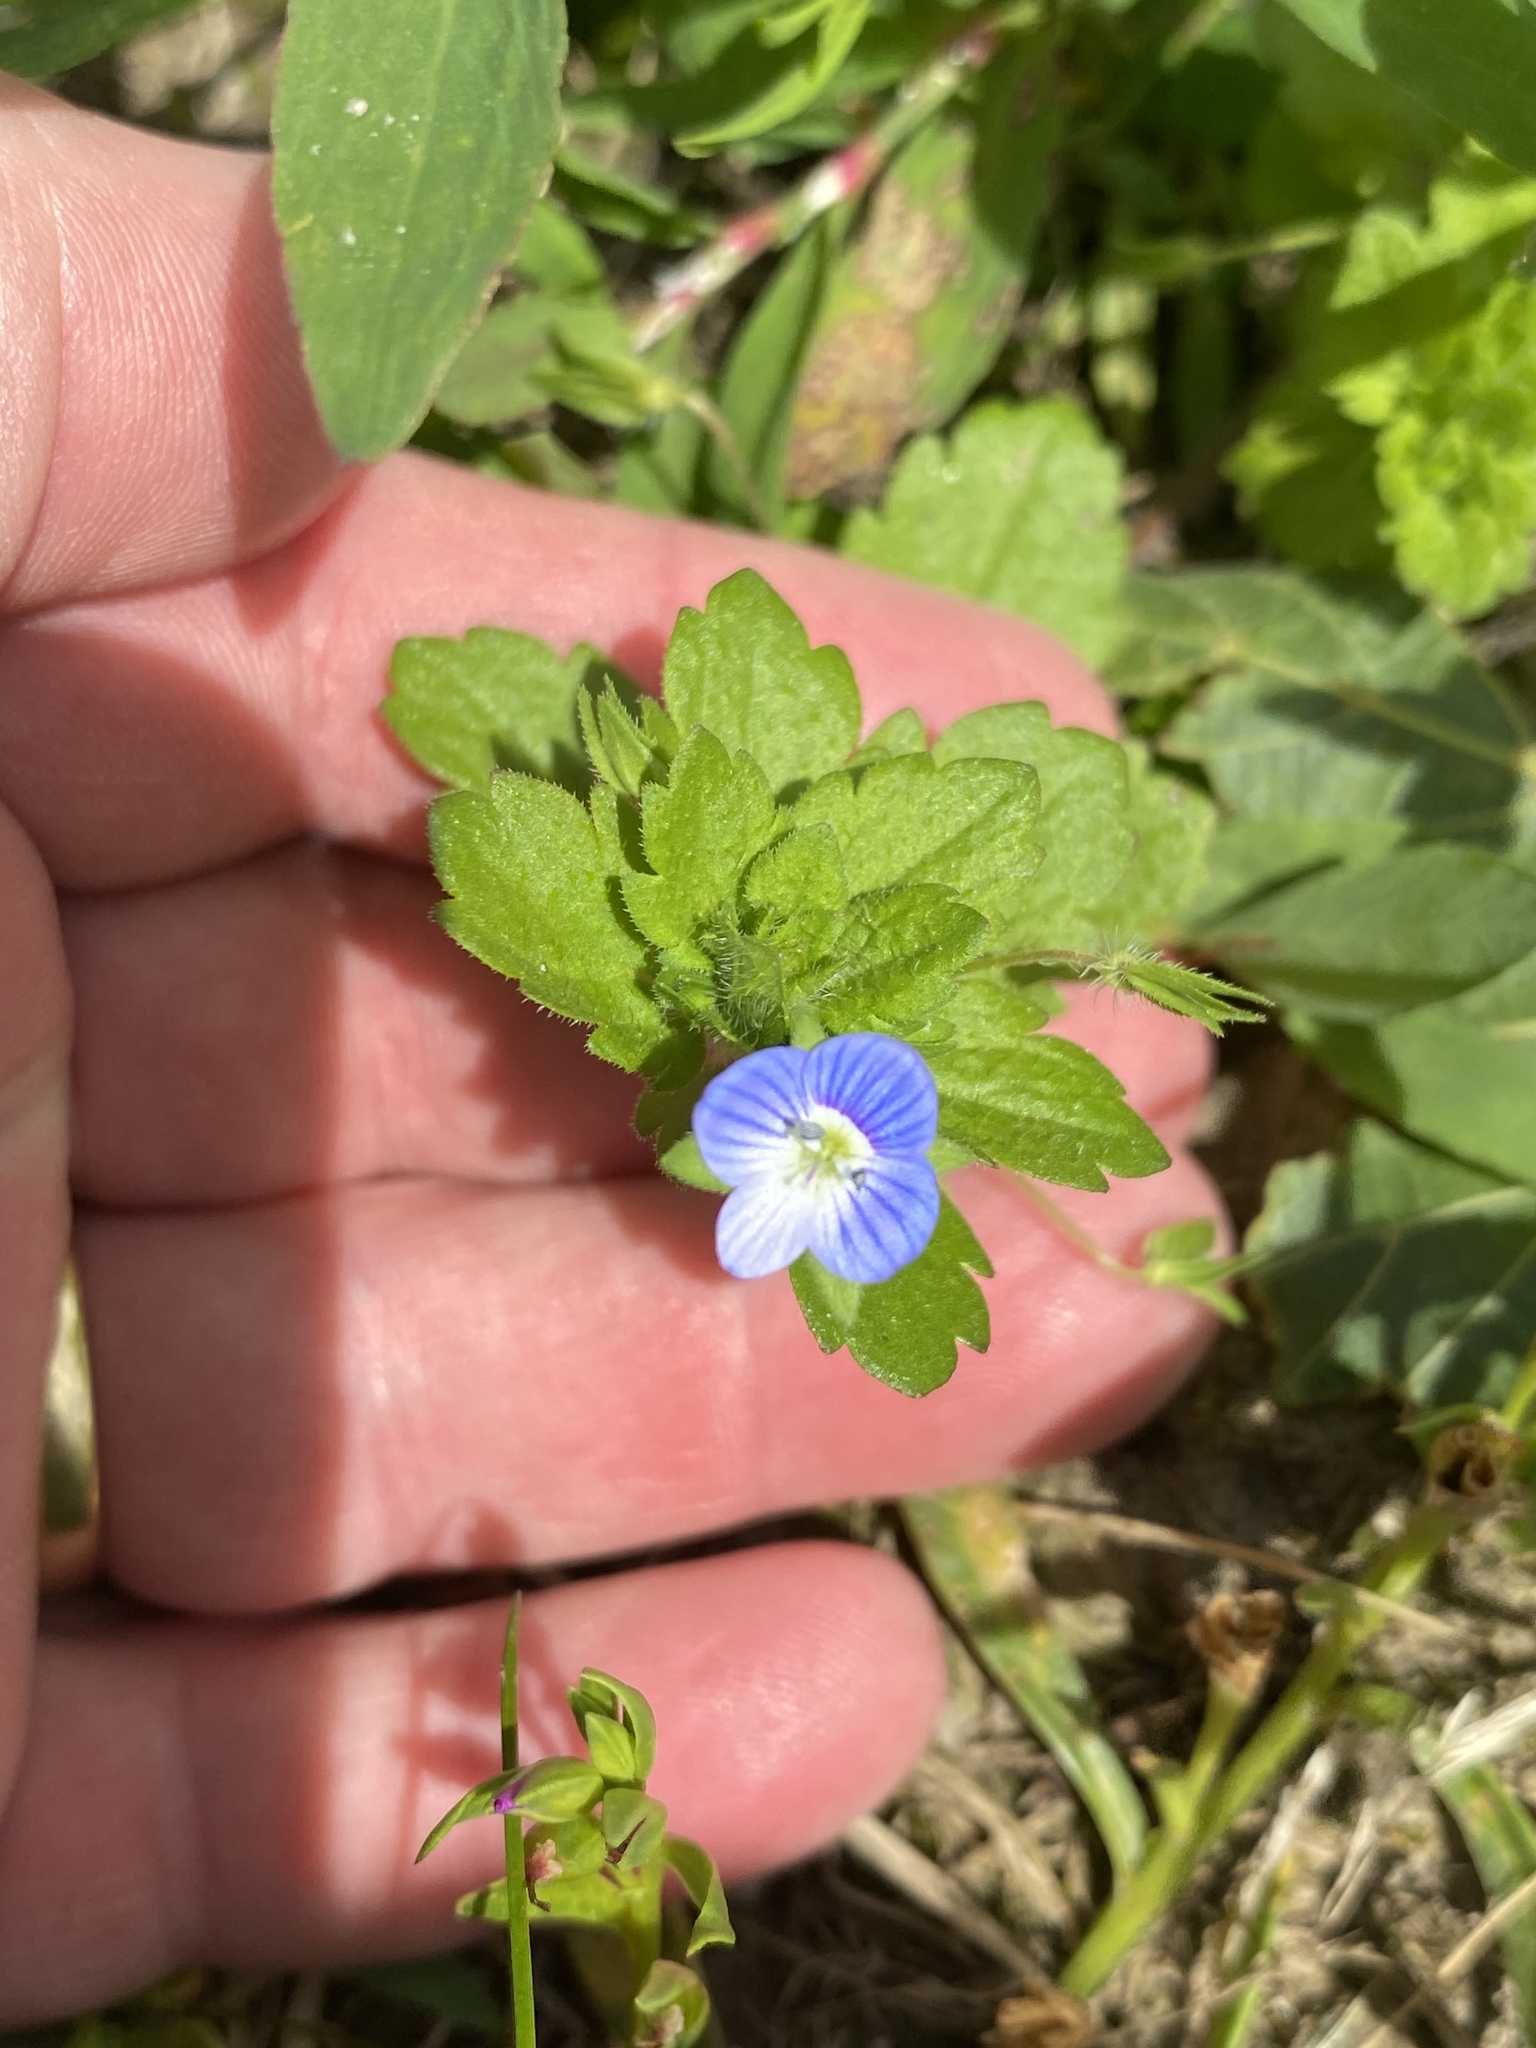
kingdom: Plantae
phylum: Tracheophyta
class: Magnoliopsida
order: Lamiales
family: Plantaginaceae
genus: Veronica
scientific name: Veronica persica
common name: Common field-speedwell
